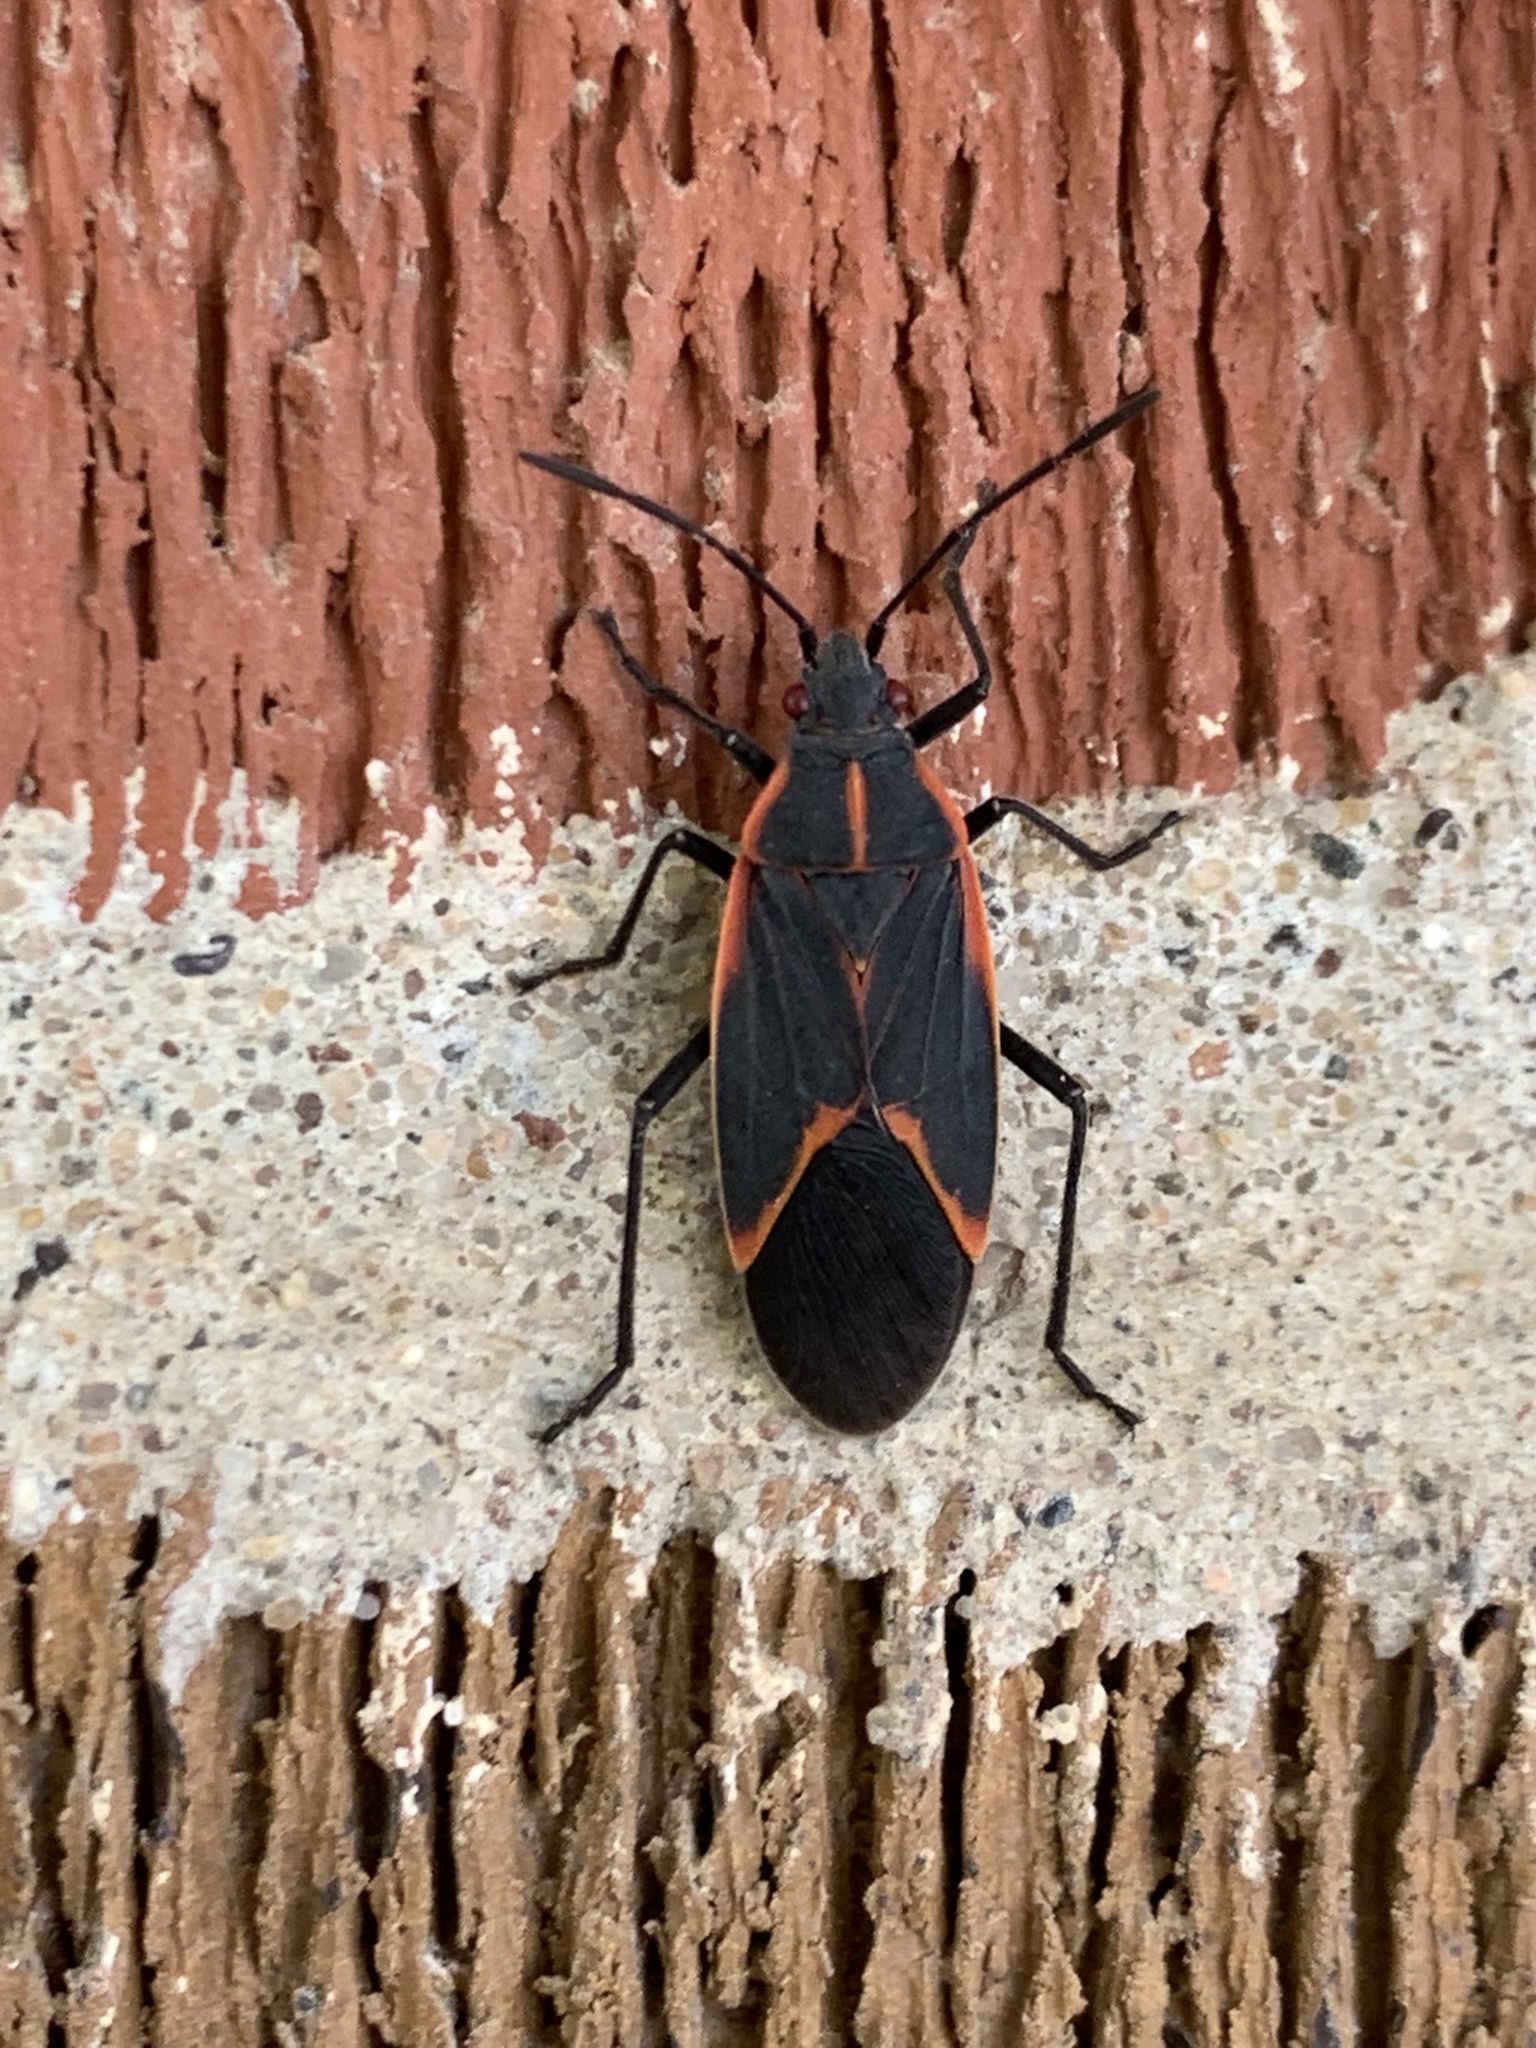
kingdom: Animalia
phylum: Arthropoda
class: Insecta
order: Hemiptera
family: Rhopalidae
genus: Boisea
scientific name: Boisea trivittata
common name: Boxelder bug
